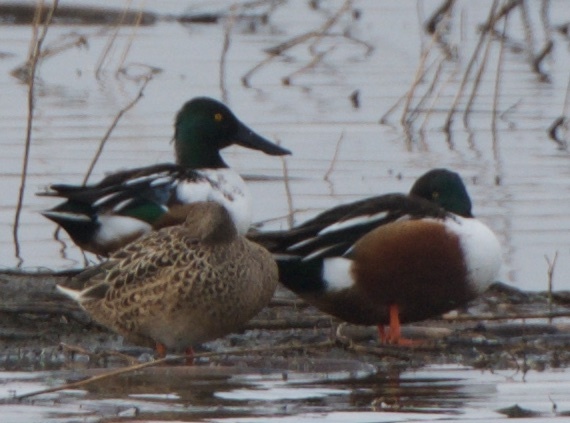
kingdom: Animalia
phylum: Chordata
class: Aves
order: Anseriformes
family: Anatidae
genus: Spatula
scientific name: Spatula clypeata
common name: Northern shoveler
